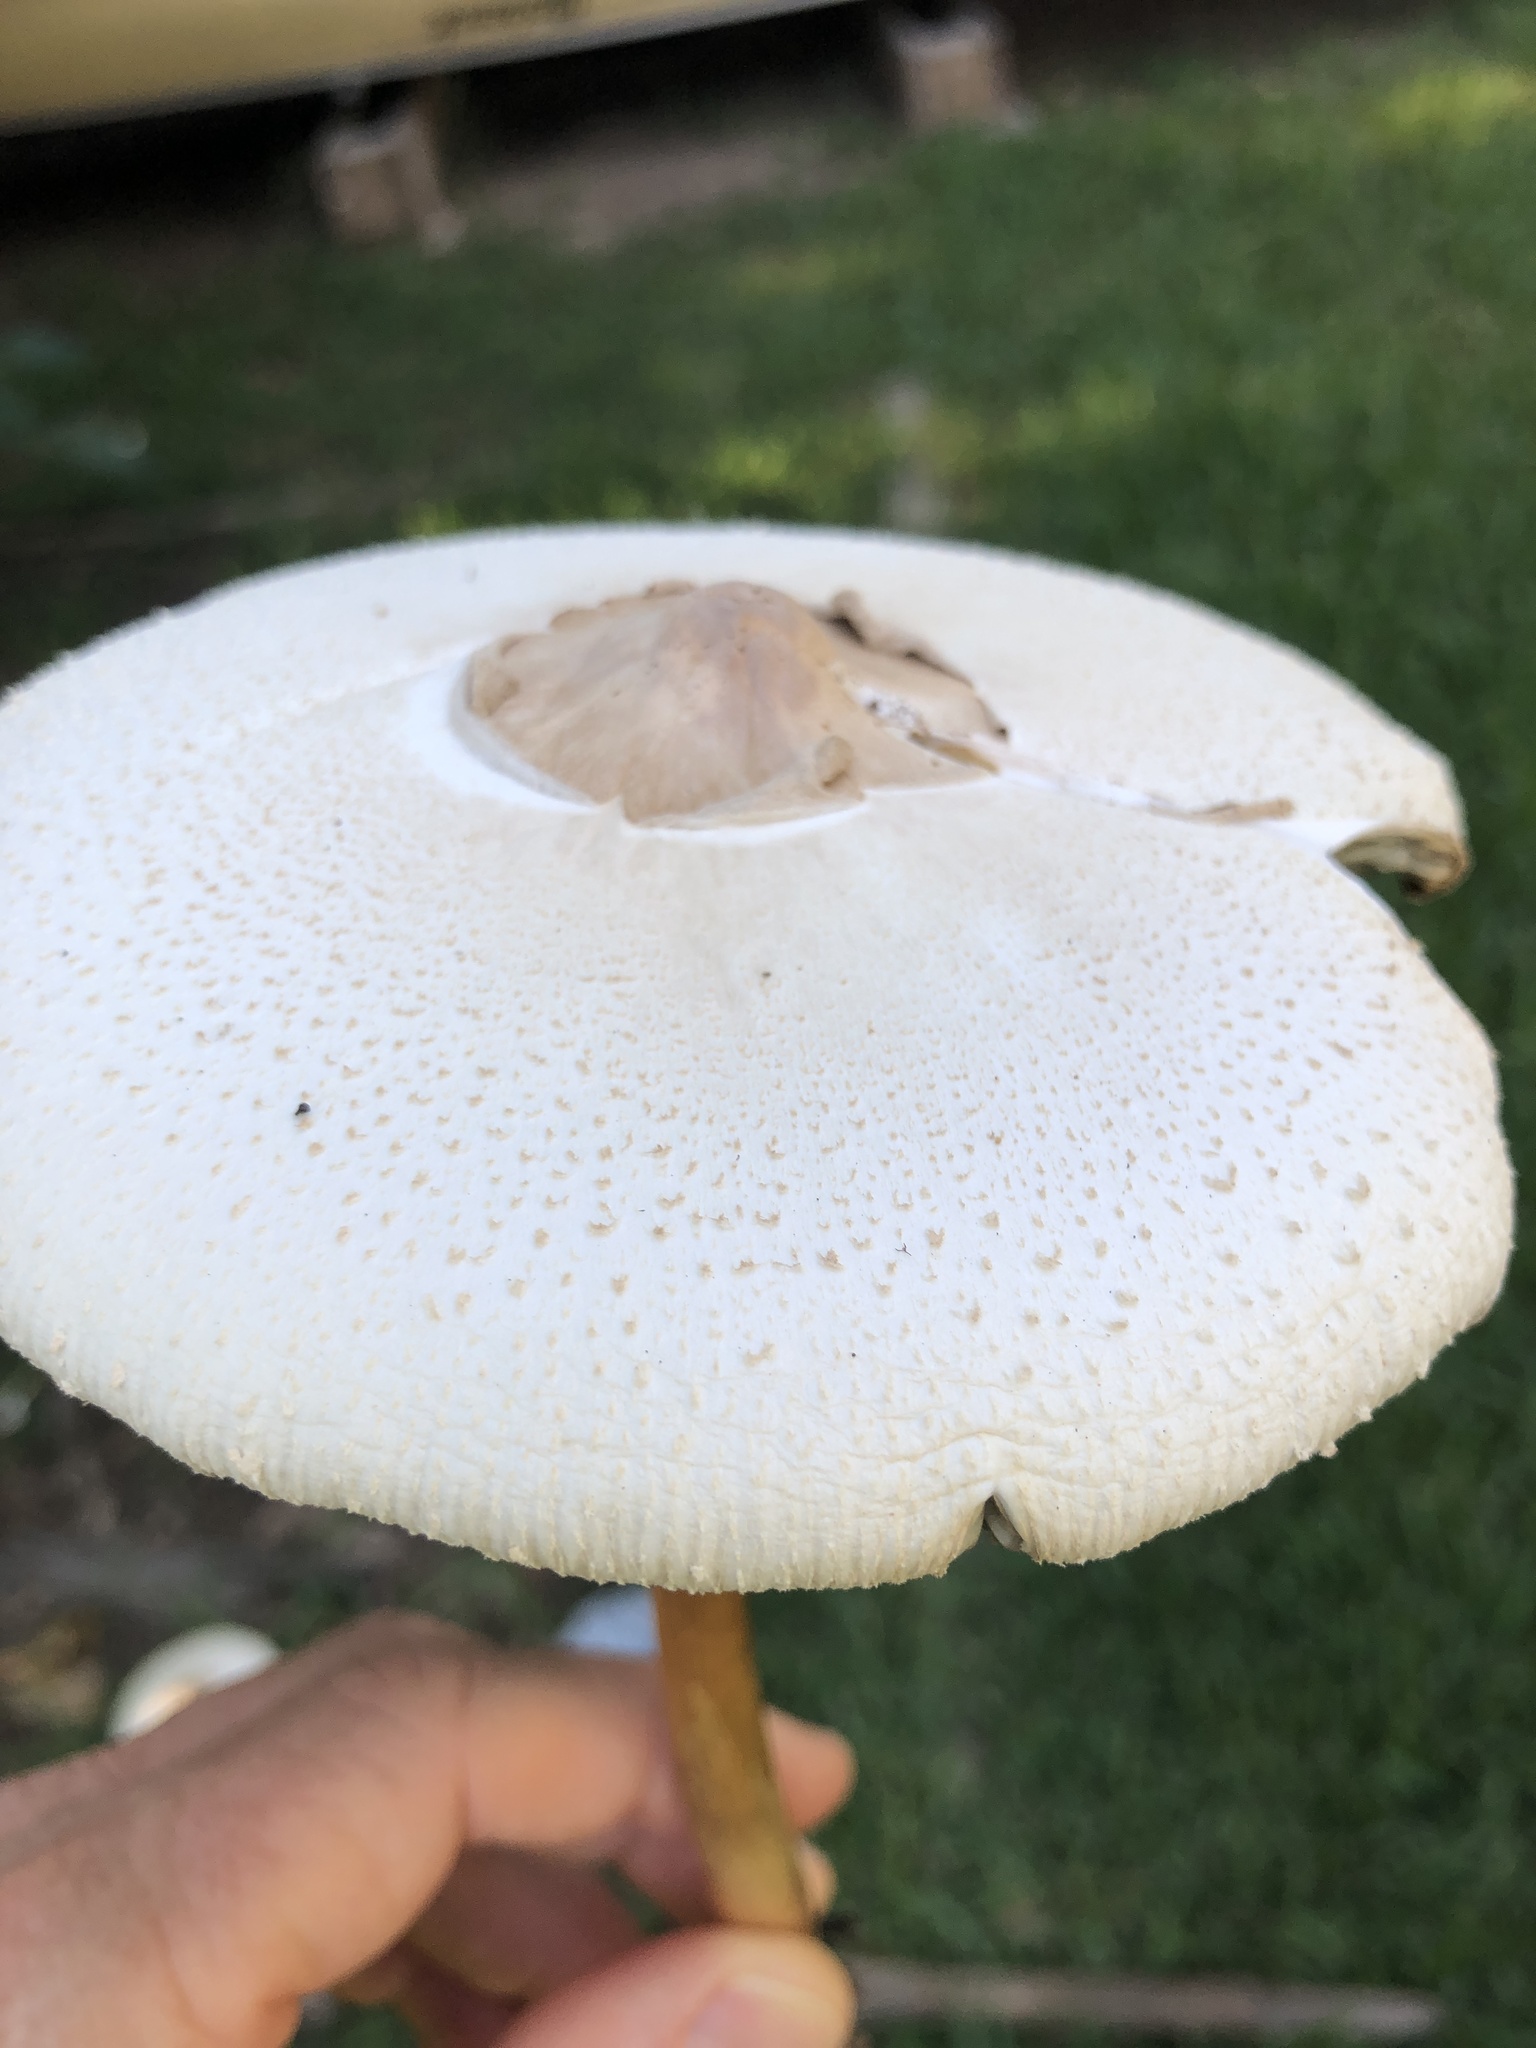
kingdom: Fungi
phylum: Basidiomycota
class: Agaricomycetes
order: Agaricales
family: Agaricaceae
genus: Chlorophyllum
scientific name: Chlorophyllum molybdites
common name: False parasol
